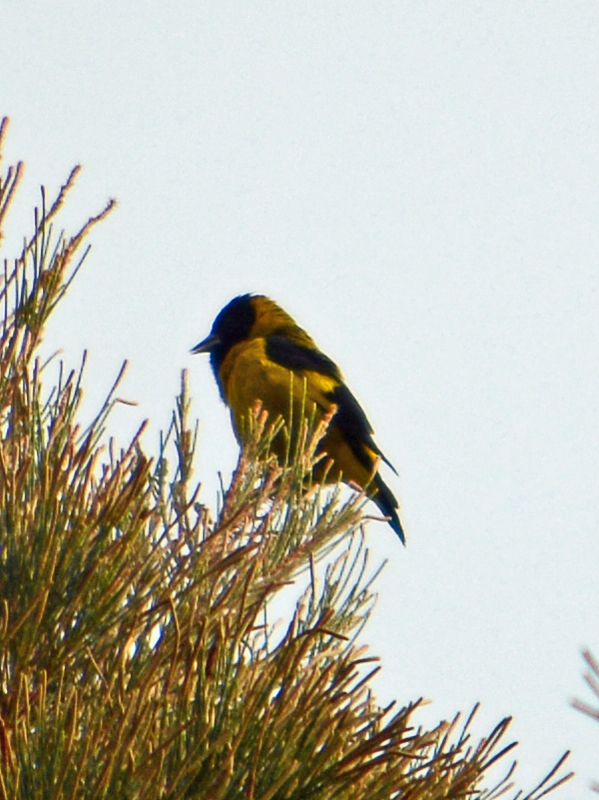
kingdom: Animalia
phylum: Chordata
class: Aves
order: Passeriformes
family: Fringillidae
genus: Spinus
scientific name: Spinus notatus
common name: Black-headed siskin
